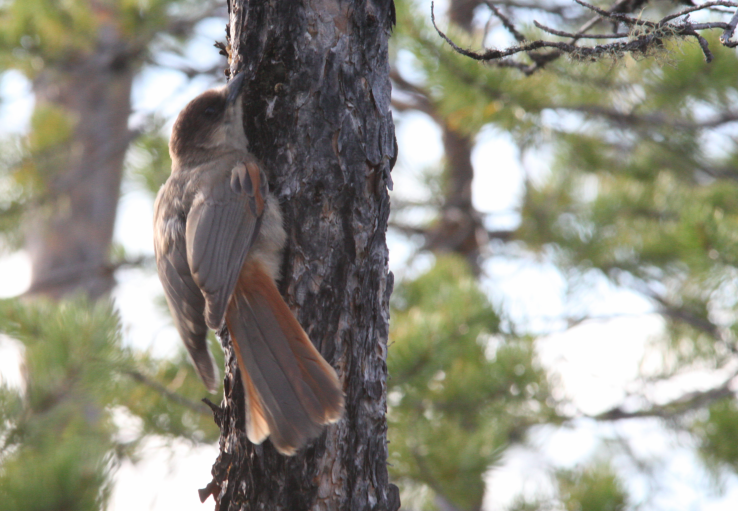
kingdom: Animalia
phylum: Chordata
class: Aves
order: Passeriformes
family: Corvidae
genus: Perisoreus
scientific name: Perisoreus infaustus
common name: Siberian jay
